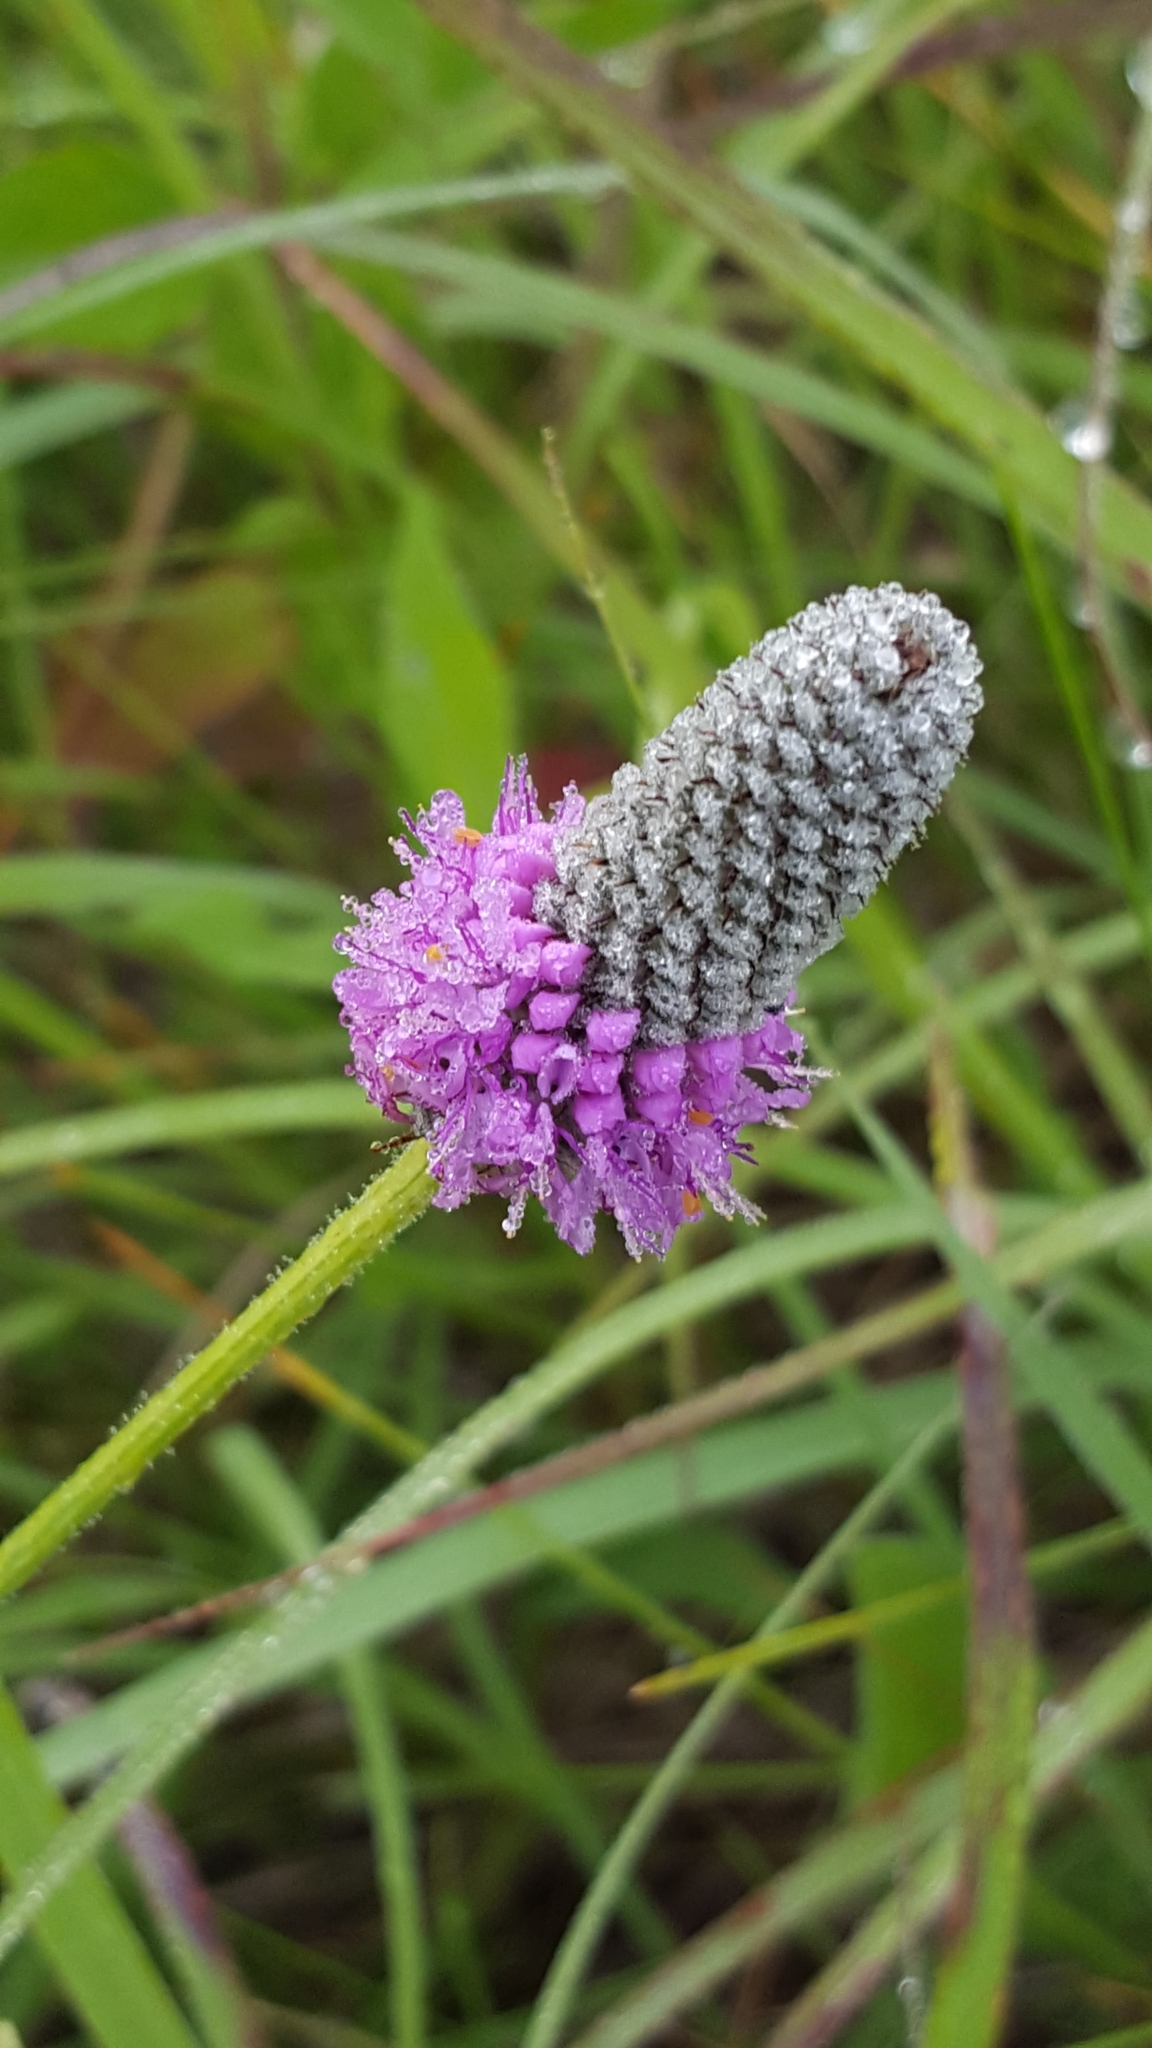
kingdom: Plantae
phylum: Tracheophyta
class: Magnoliopsida
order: Fabales
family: Fabaceae
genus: Dalea
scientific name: Dalea purpurea
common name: Purple prairie-clover
